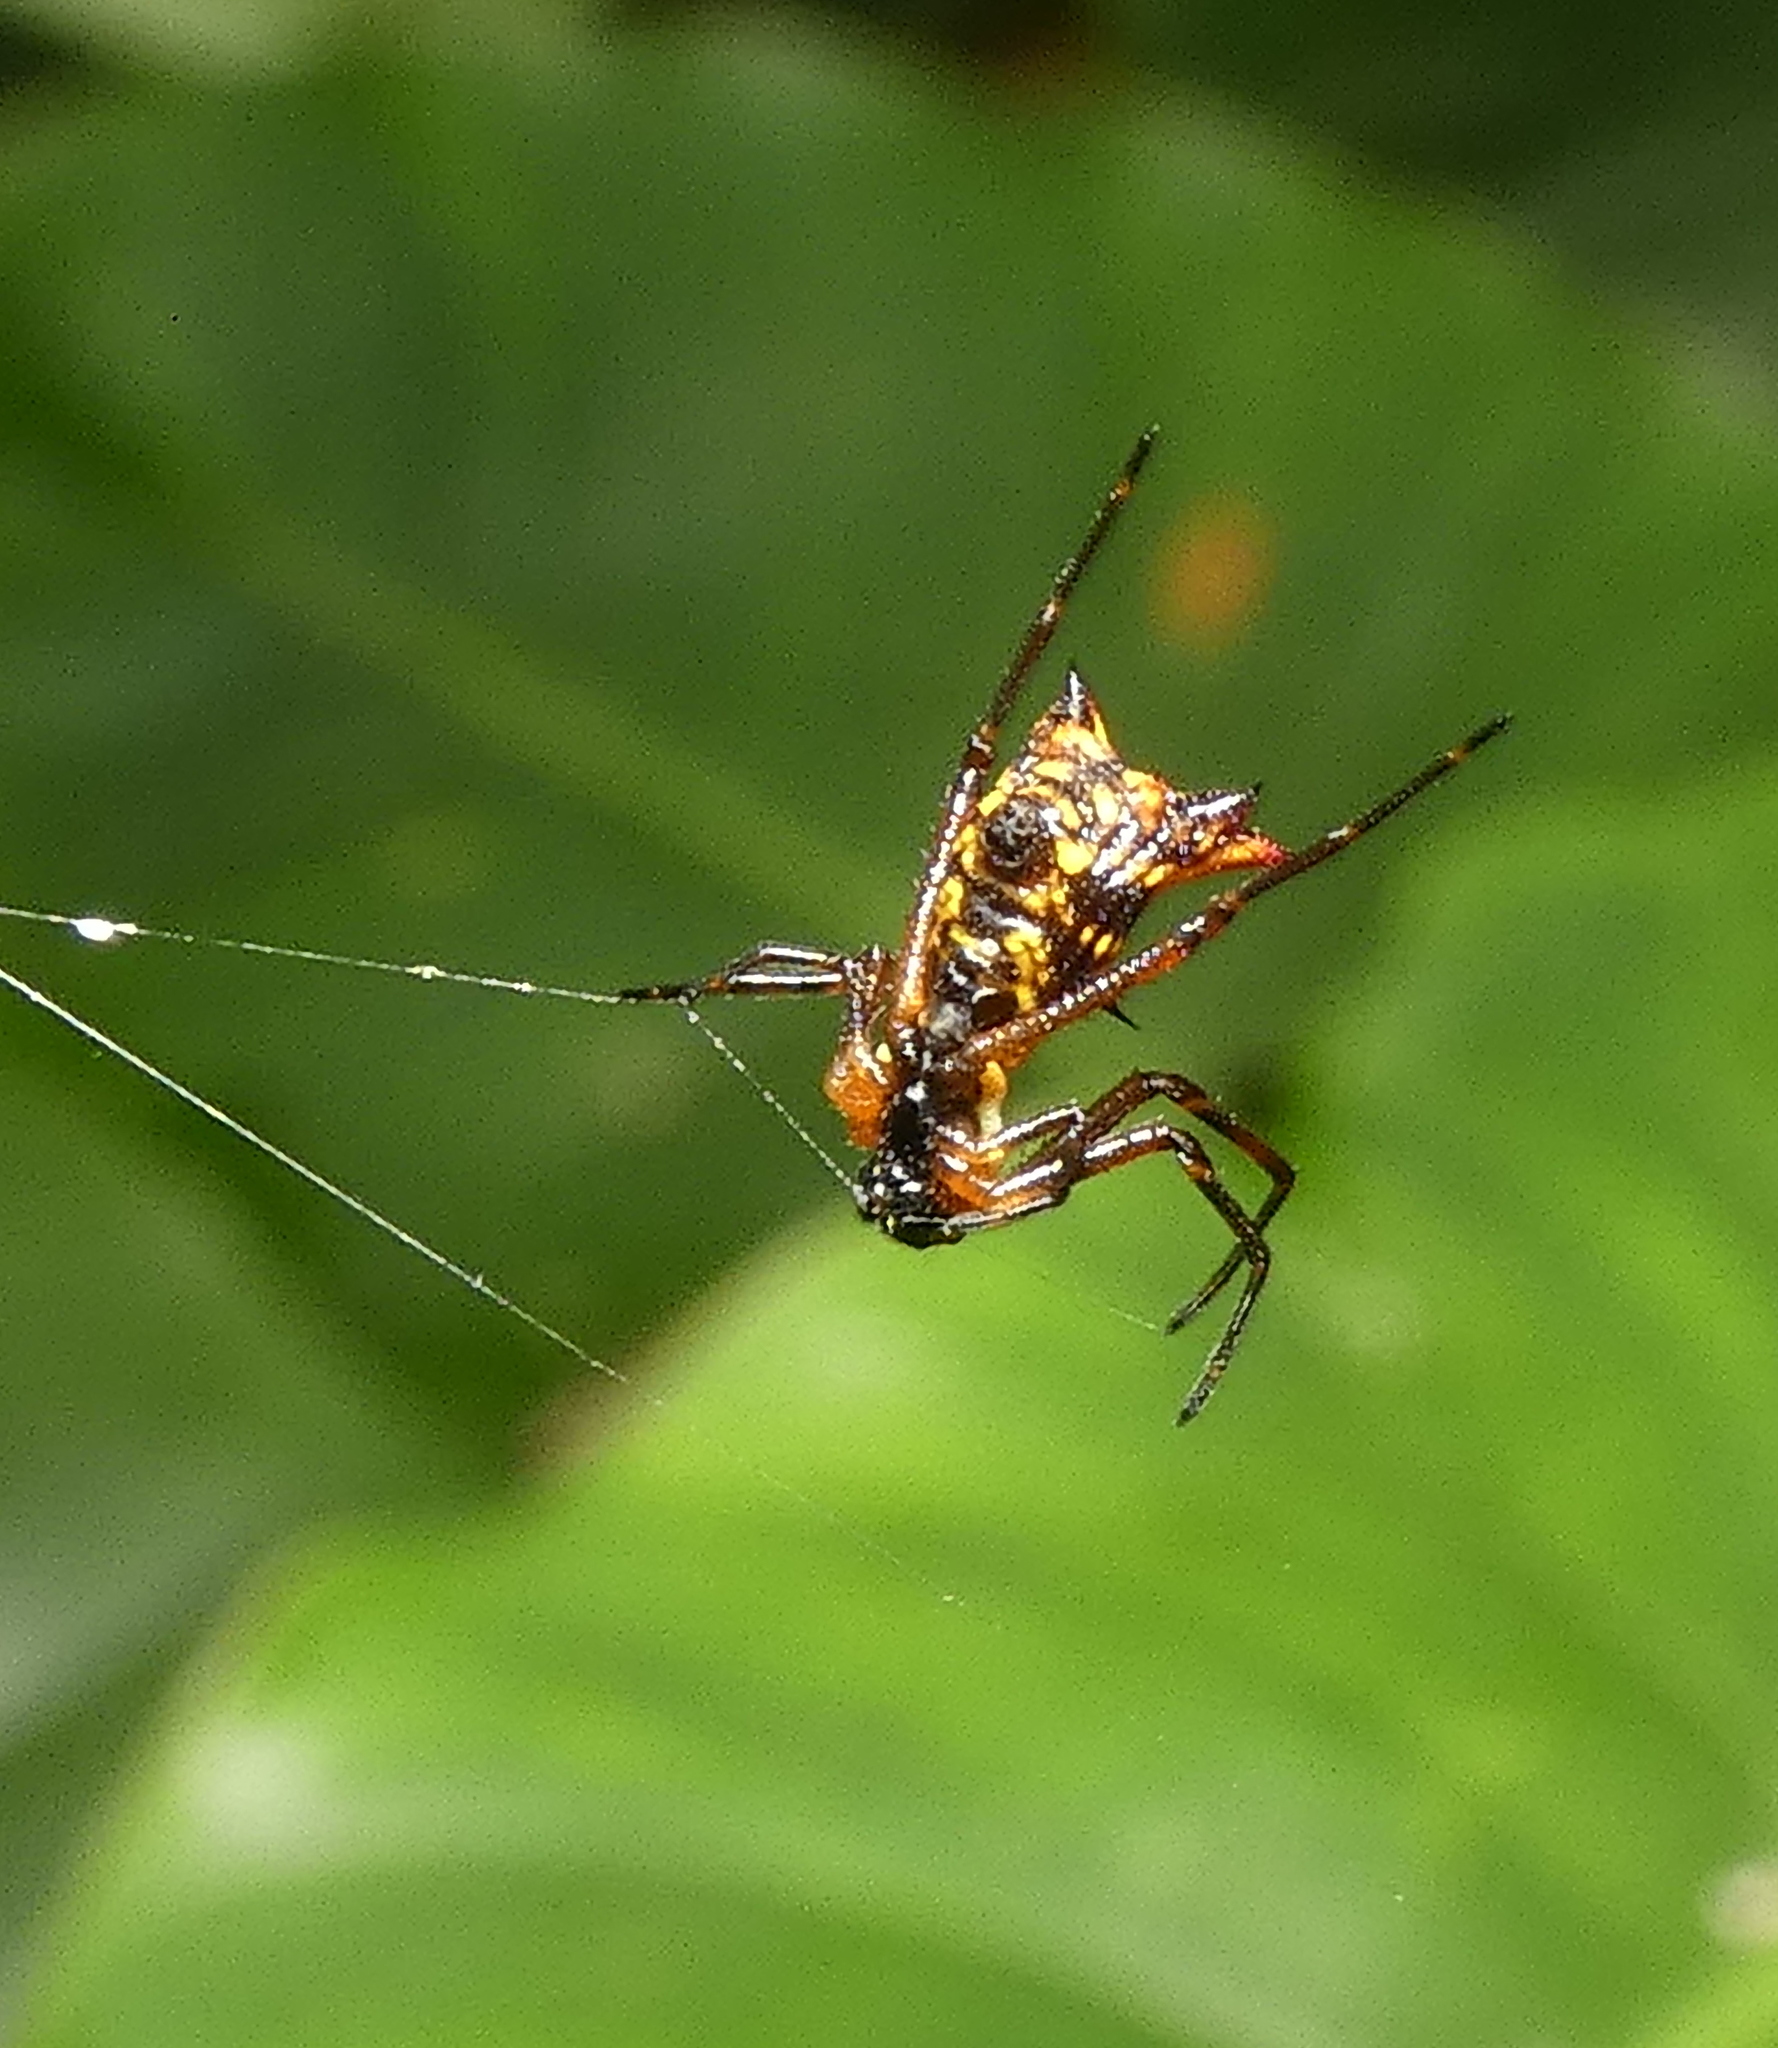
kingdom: Animalia
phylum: Arthropoda
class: Arachnida
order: Araneae
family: Araneidae
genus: Micrathena
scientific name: Micrathena fissispina
